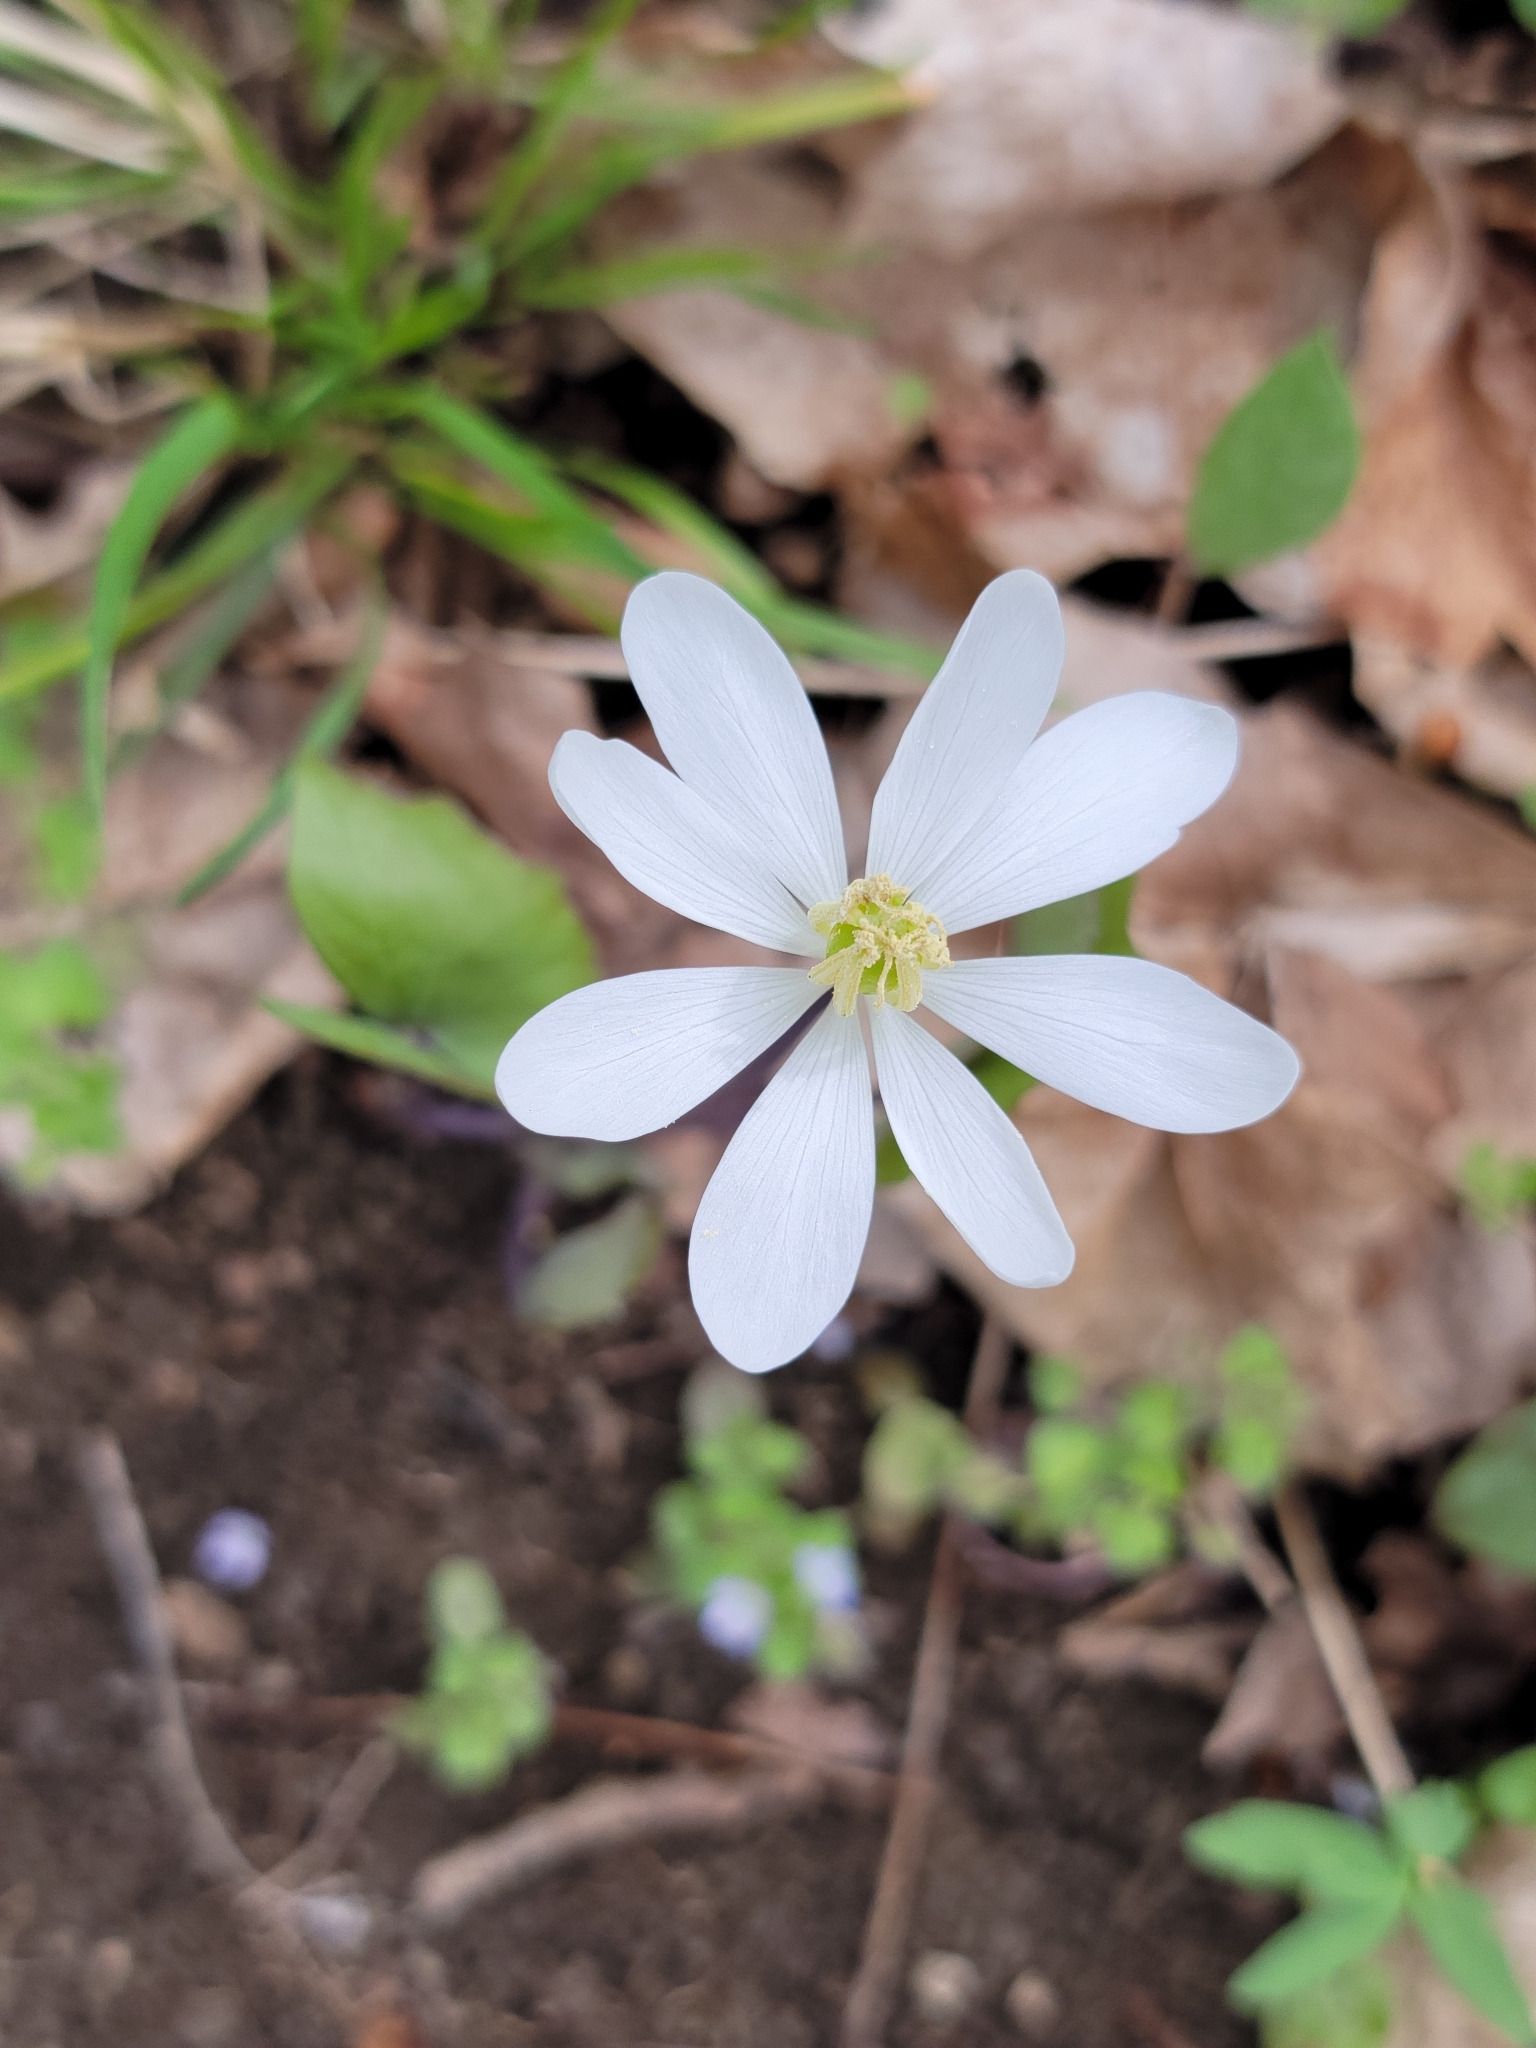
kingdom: Plantae
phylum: Tracheophyta
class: Magnoliopsida
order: Ranunculales
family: Berberidaceae
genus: Jeffersonia
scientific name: Jeffersonia diphylla
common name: Rheumatism-root
